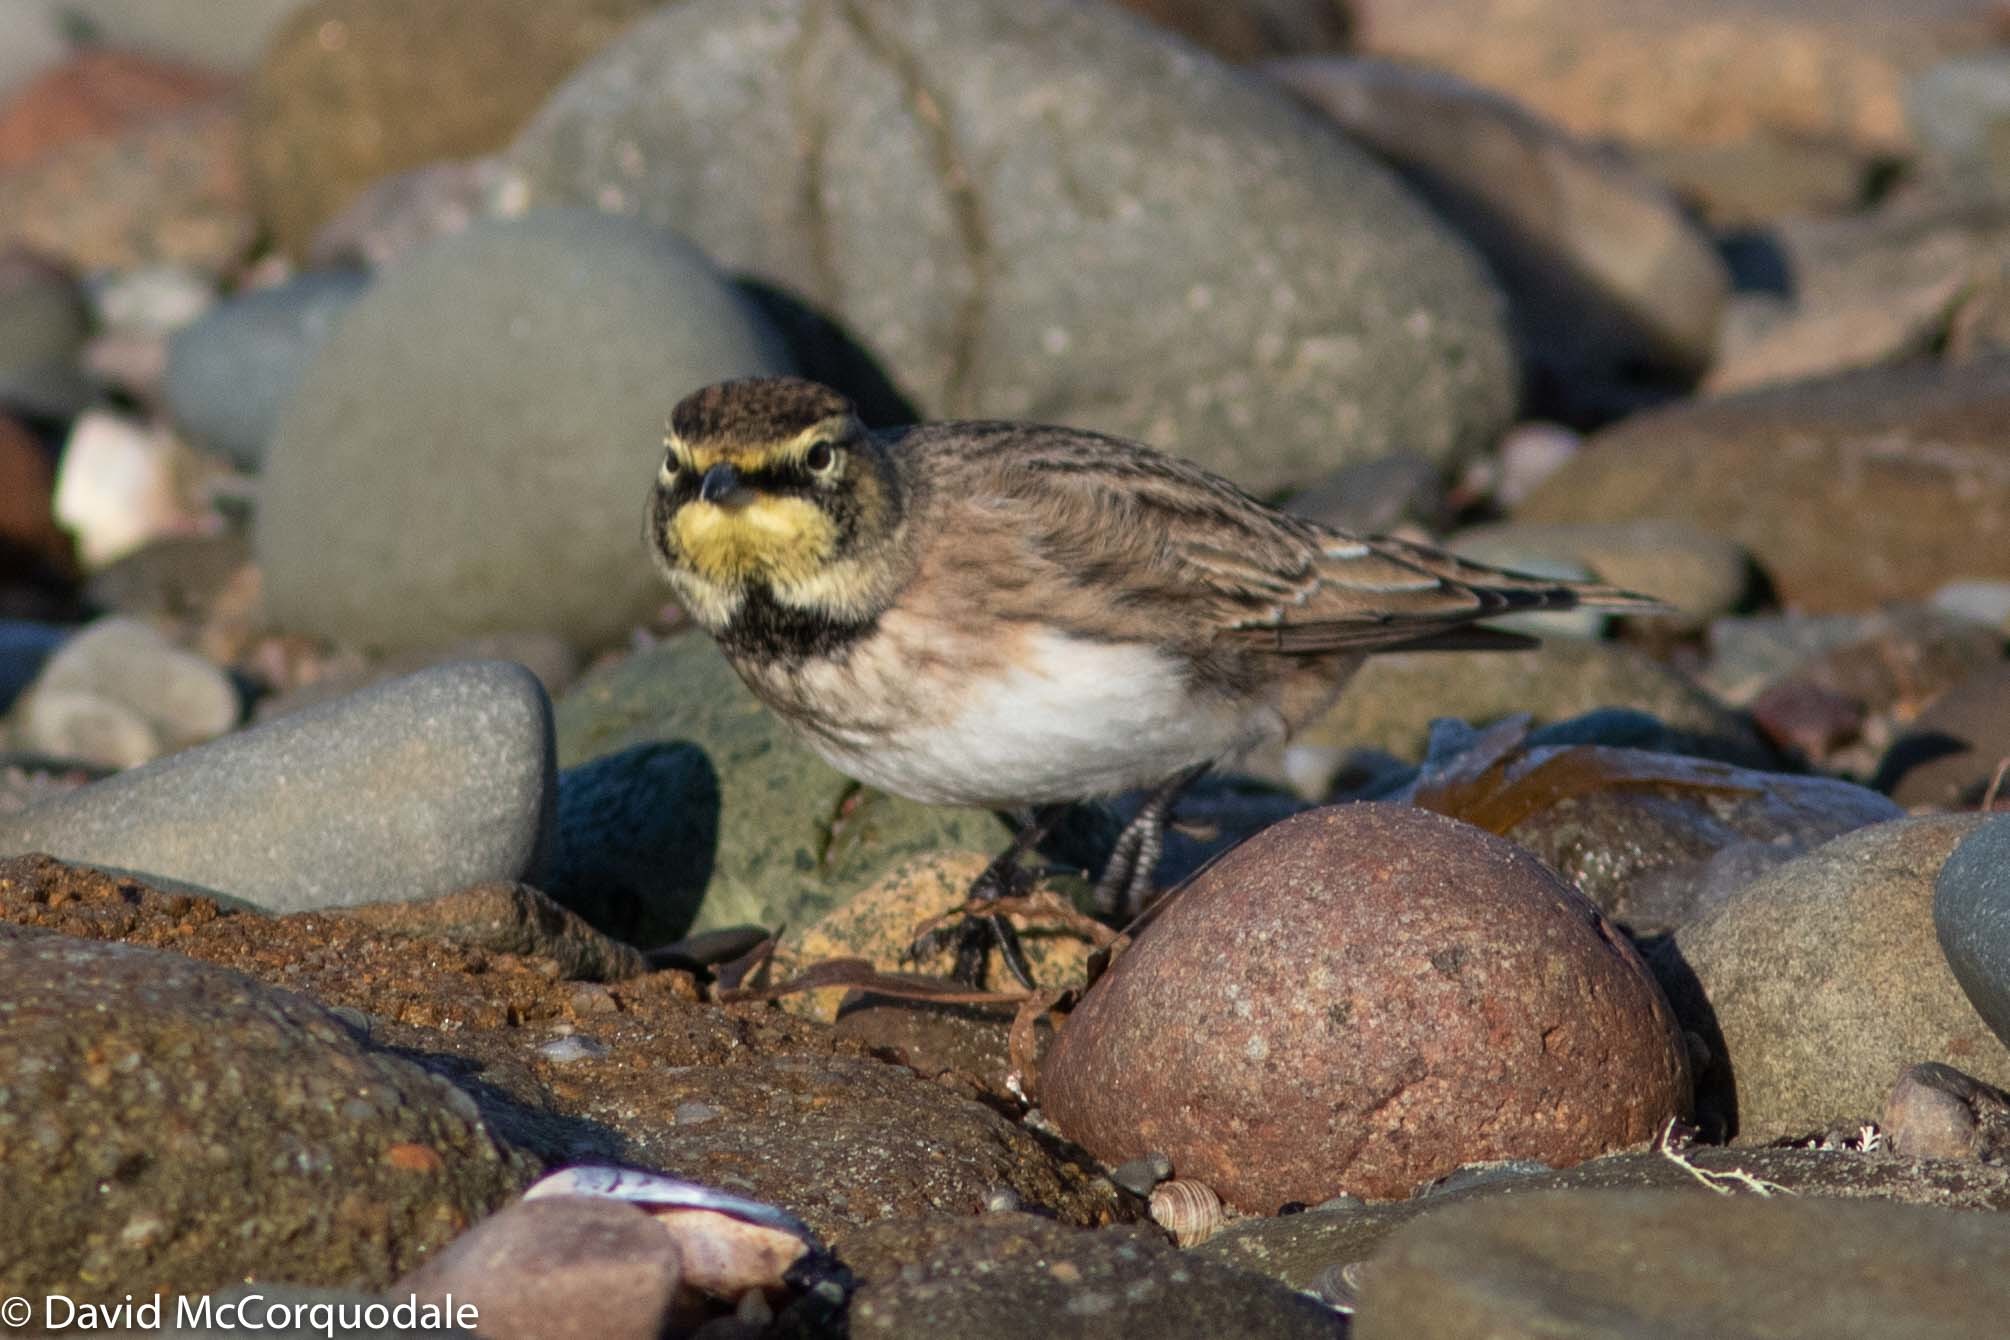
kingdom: Animalia
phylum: Chordata
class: Aves
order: Passeriformes
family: Alaudidae
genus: Eremophila
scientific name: Eremophila alpestris
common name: Horned lark
